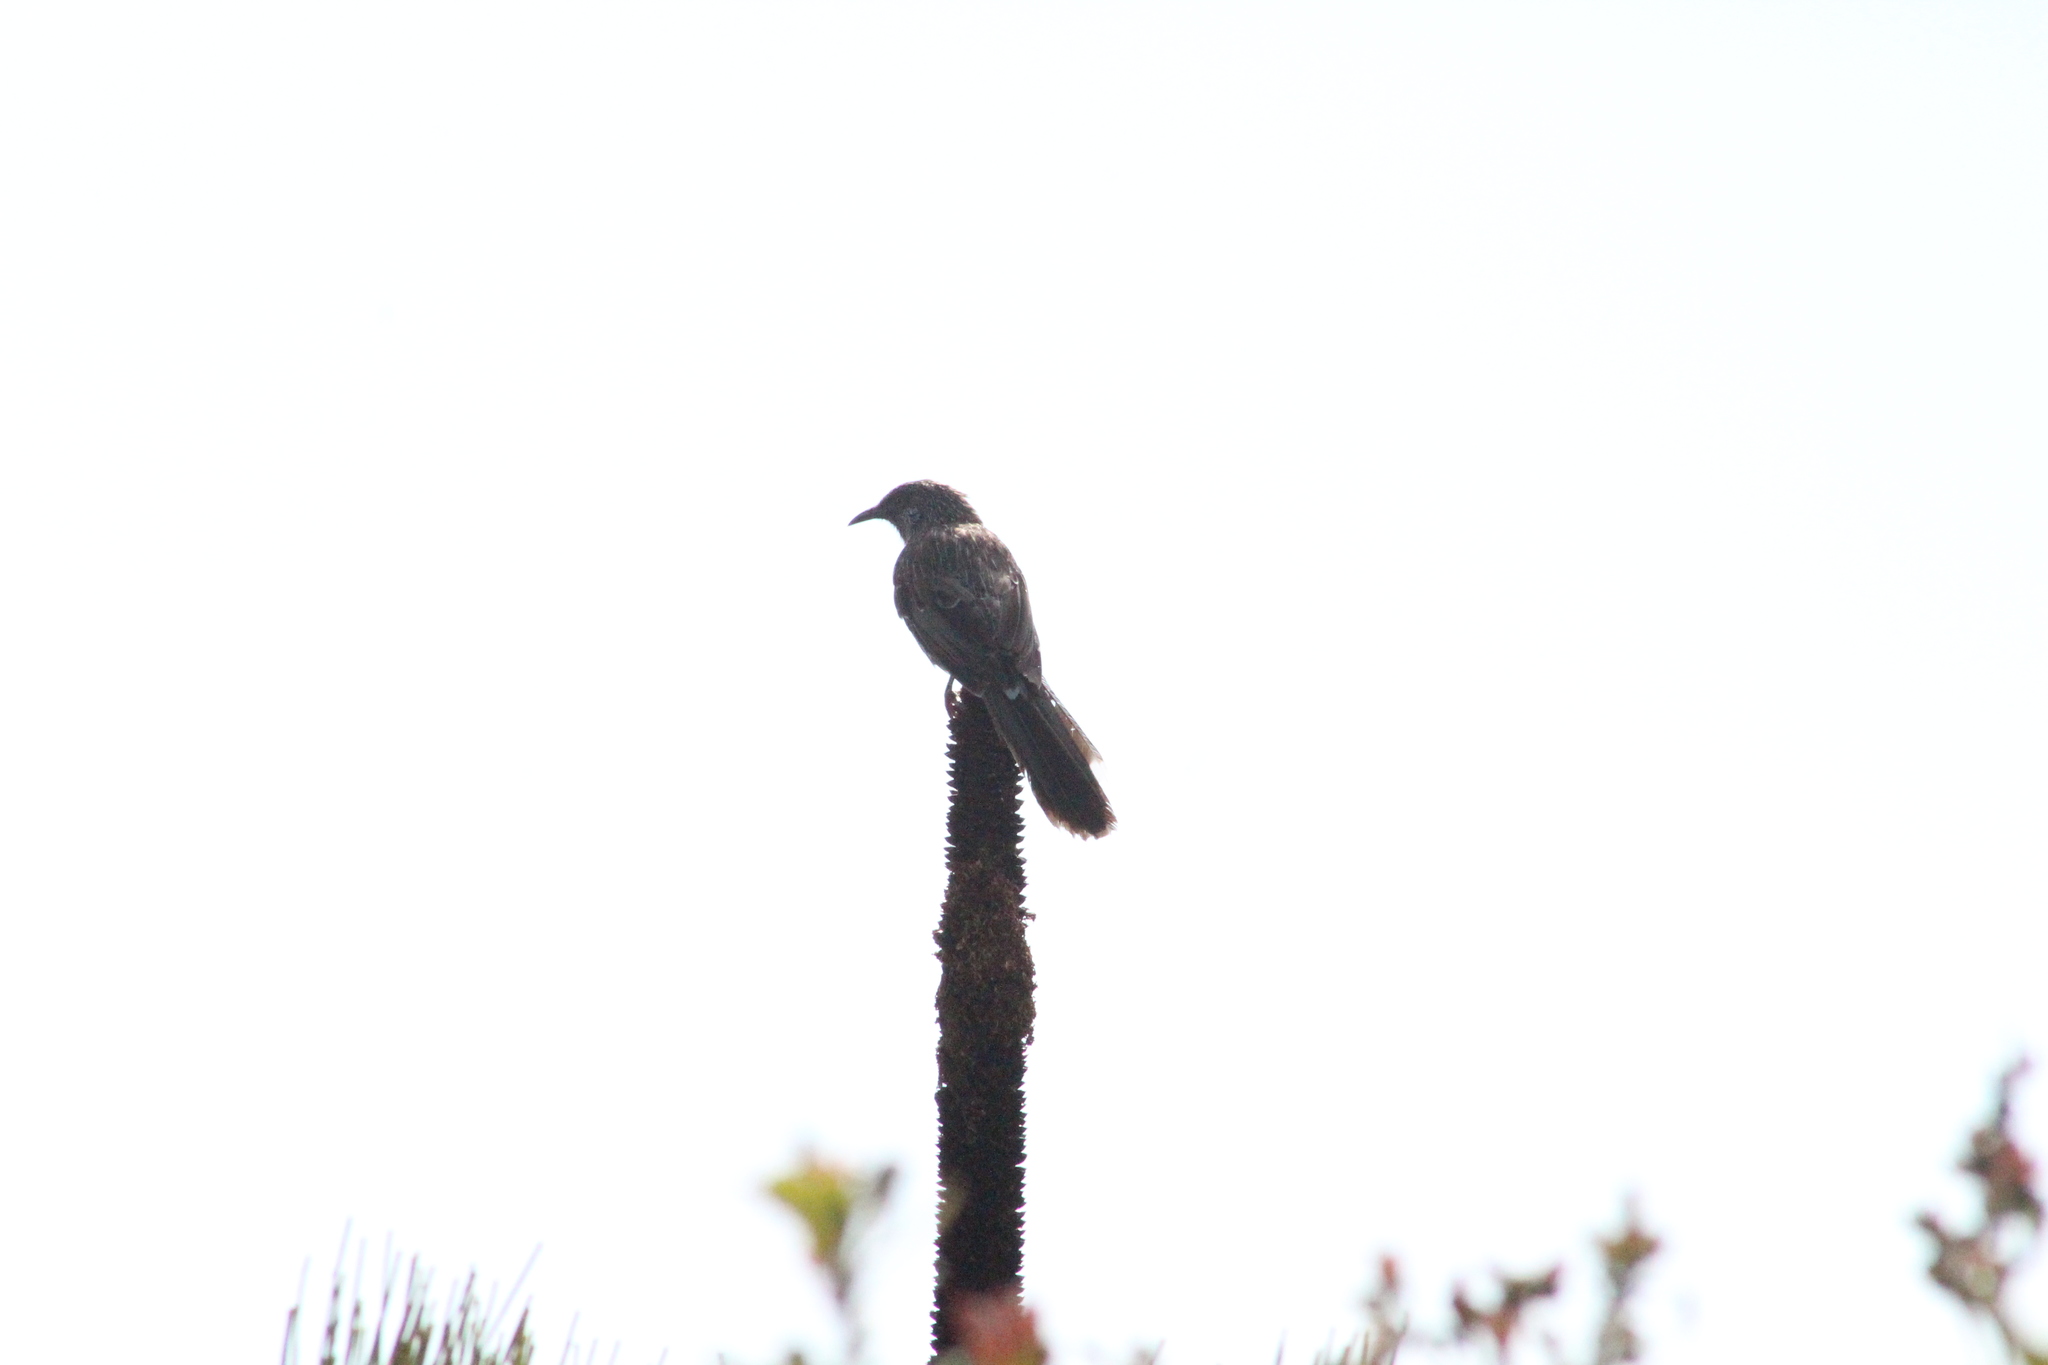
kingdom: Animalia
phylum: Chordata
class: Aves
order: Passeriformes
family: Meliphagidae
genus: Anthochaera
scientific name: Anthochaera chrysoptera
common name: Little wattlebird
